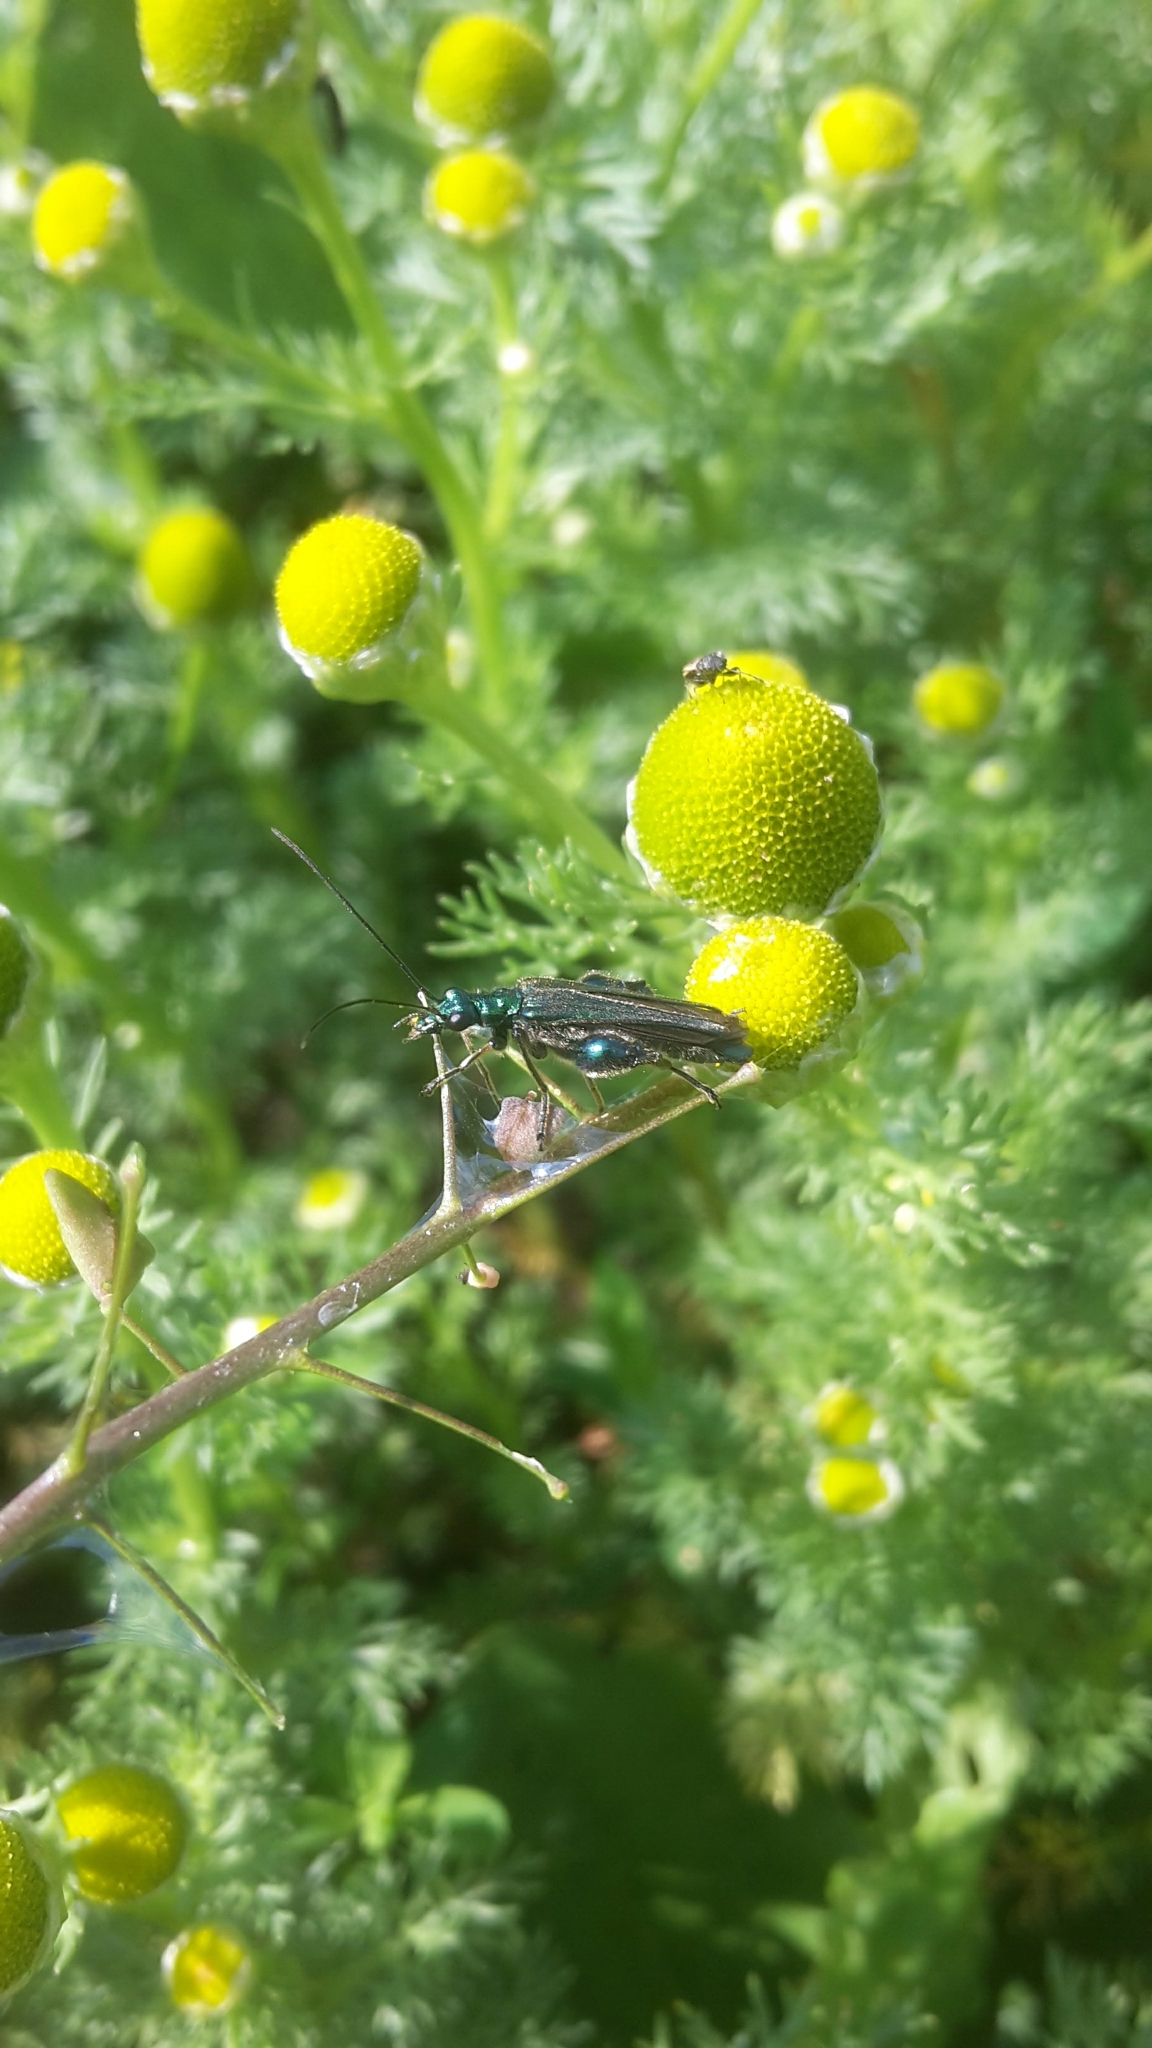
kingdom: Animalia
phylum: Arthropoda
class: Insecta
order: Coleoptera
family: Oedemeridae
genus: Oedemera
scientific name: Oedemera nobilis
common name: Swollen-thighed beetle
